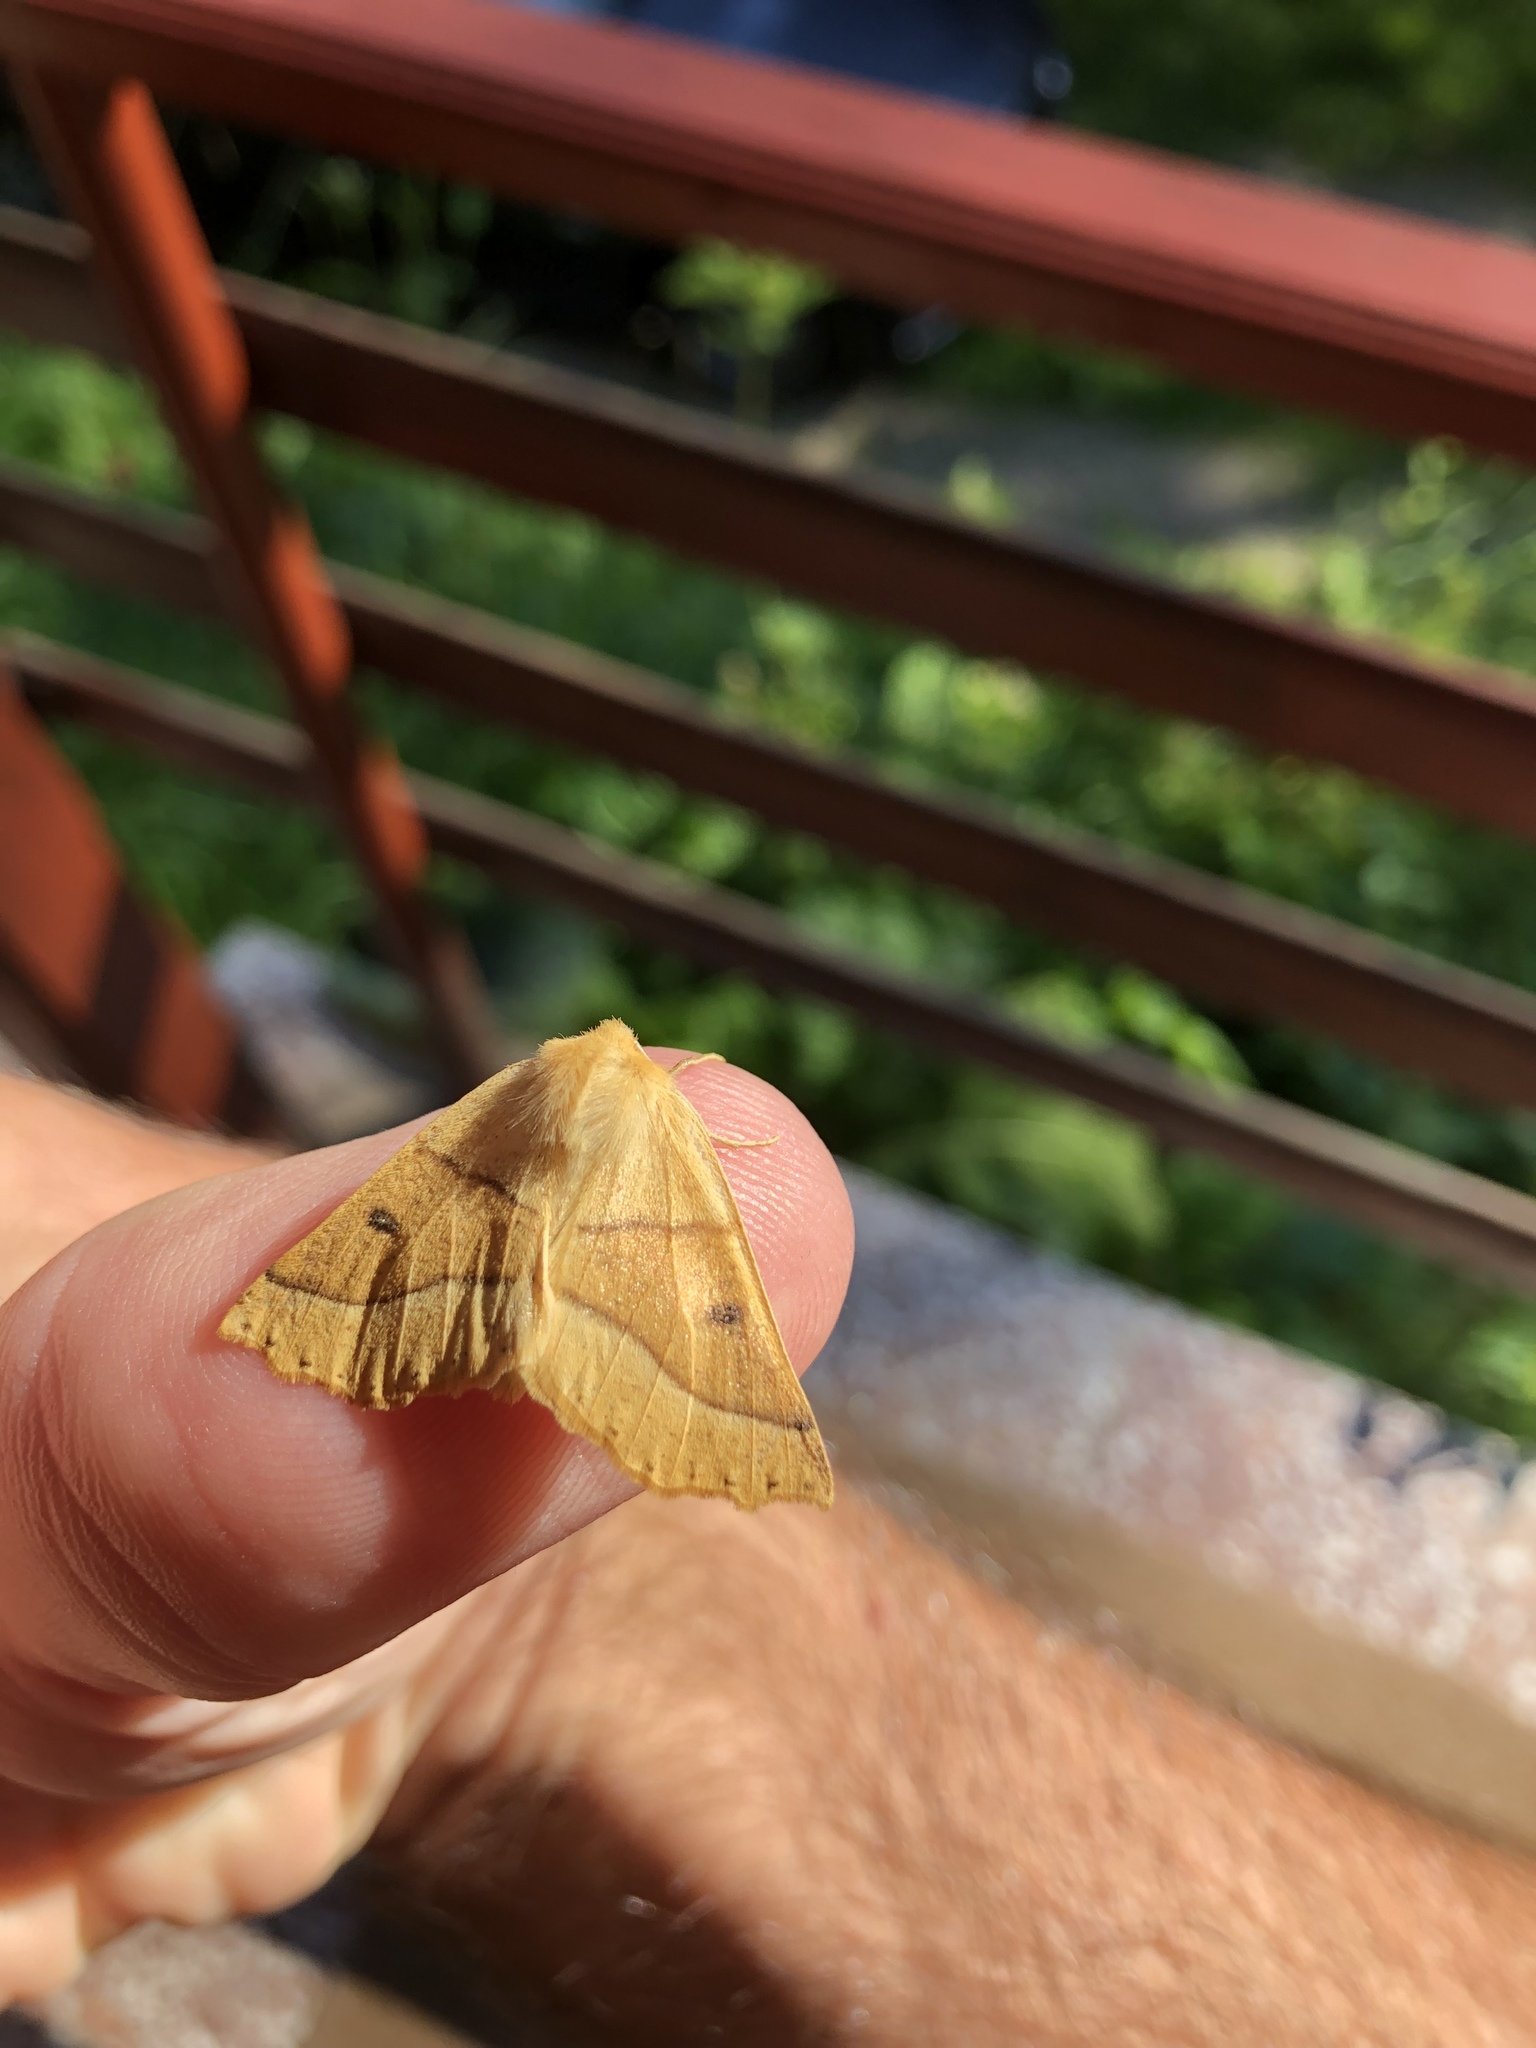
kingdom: Animalia
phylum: Arthropoda
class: Insecta
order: Lepidoptera
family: Geometridae
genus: Crocallis
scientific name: Crocallis elinguaria
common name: Scalloped oak
